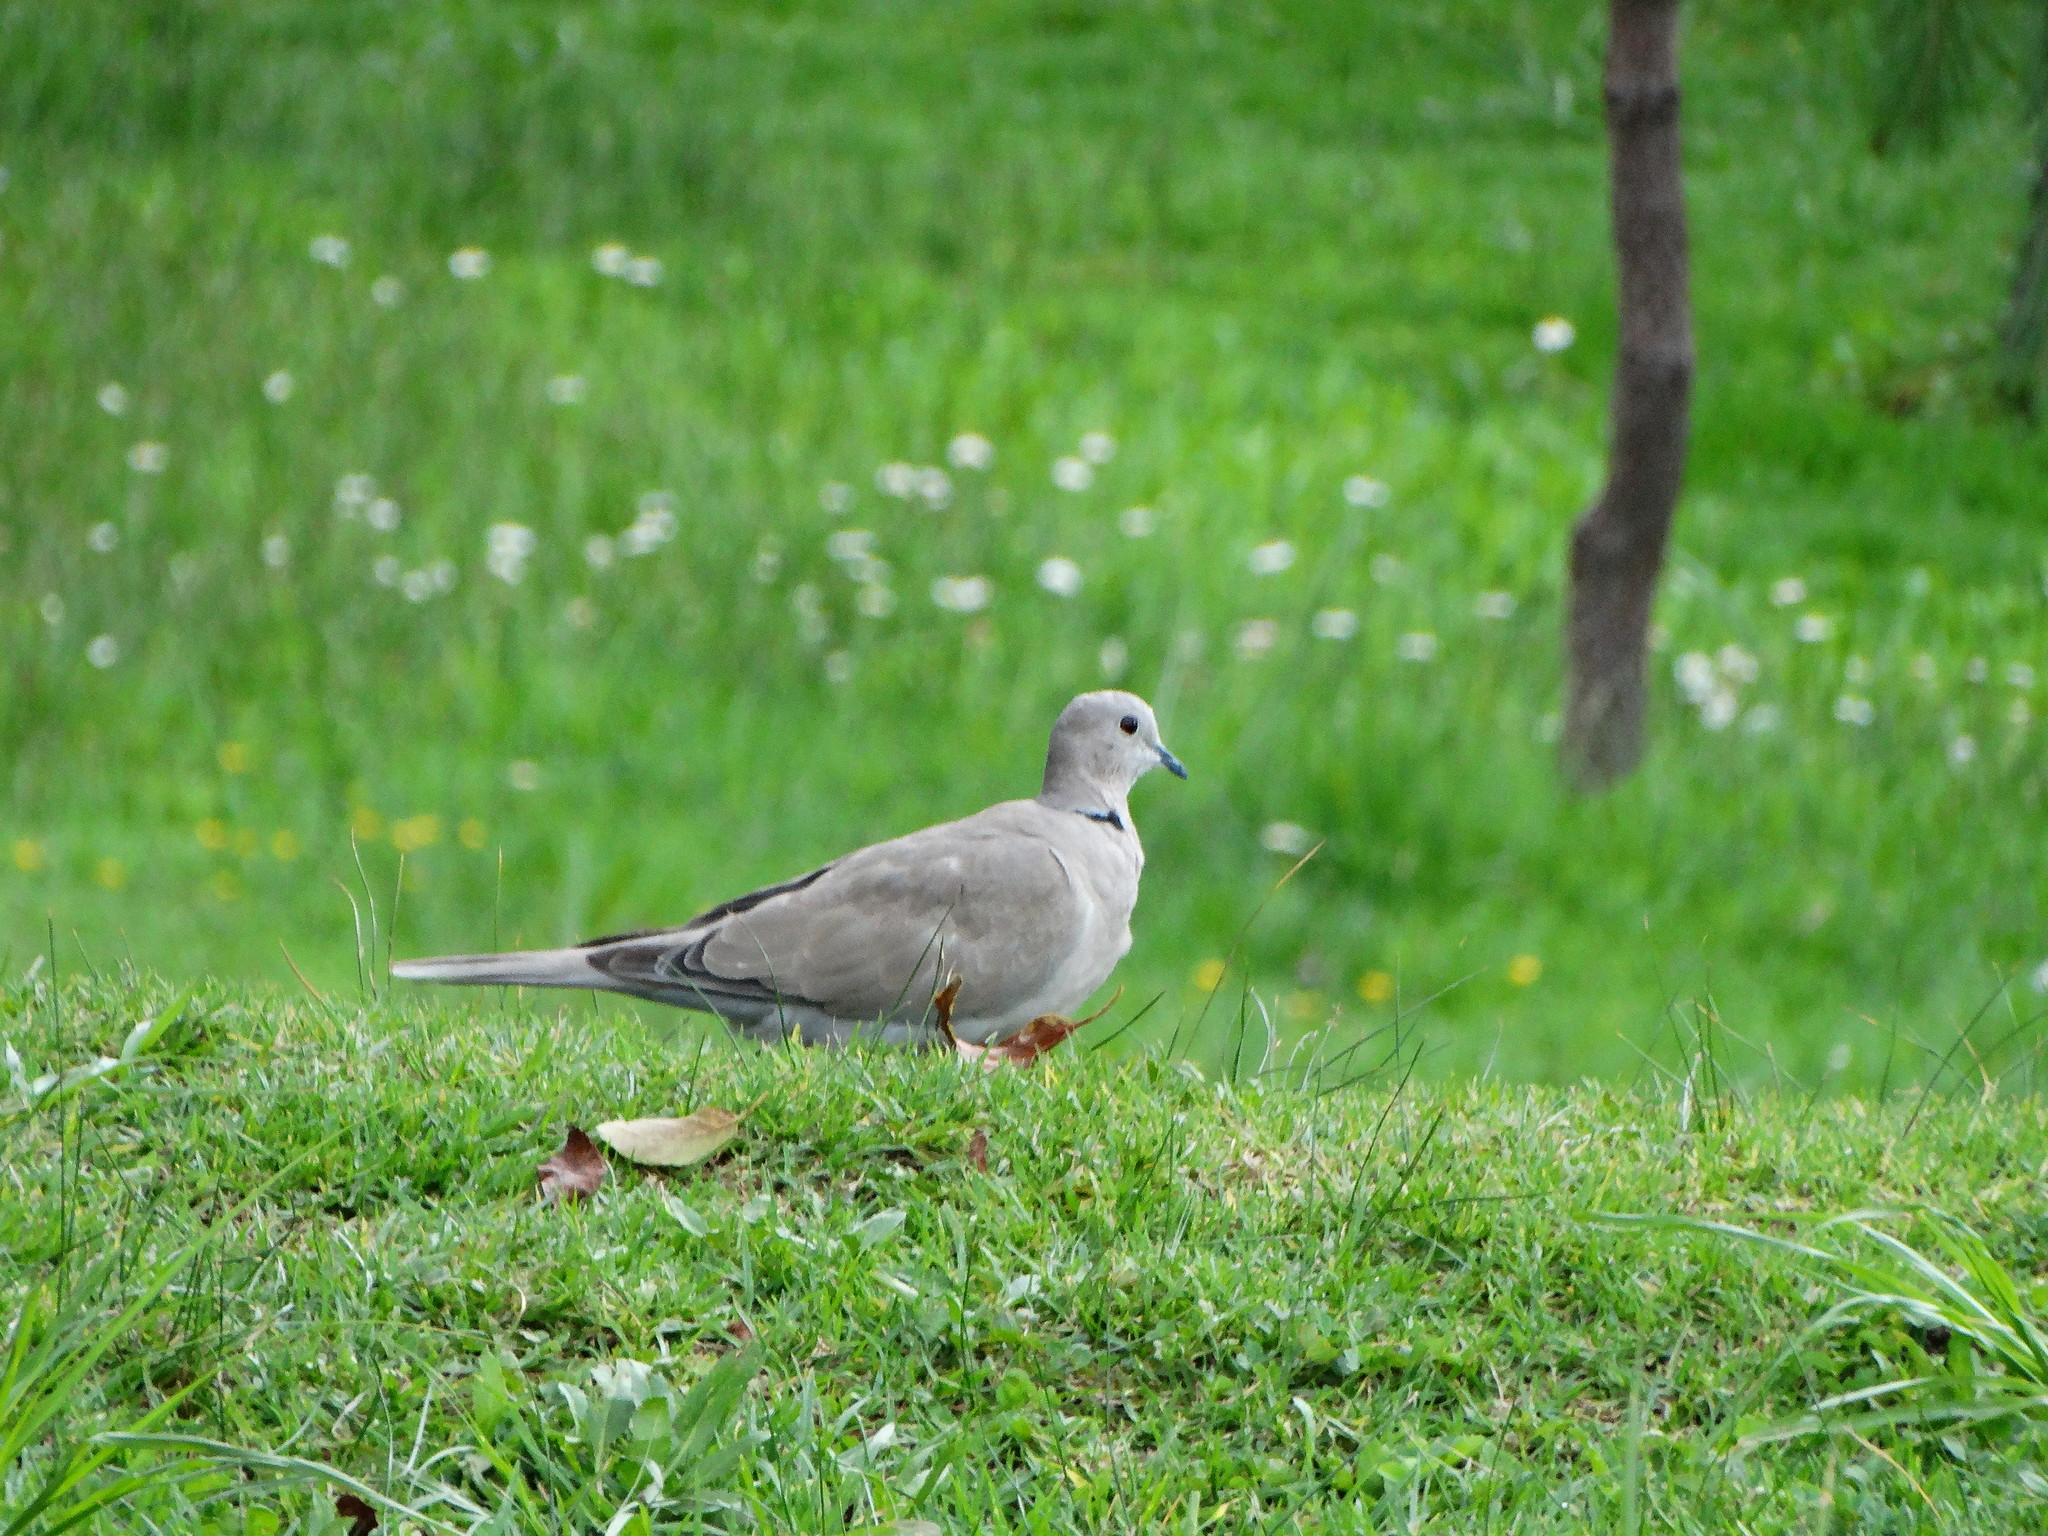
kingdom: Animalia
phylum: Chordata
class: Aves
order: Columbiformes
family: Columbidae
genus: Streptopelia
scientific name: Streptopelia decaocto
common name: Eurasian collared dove
